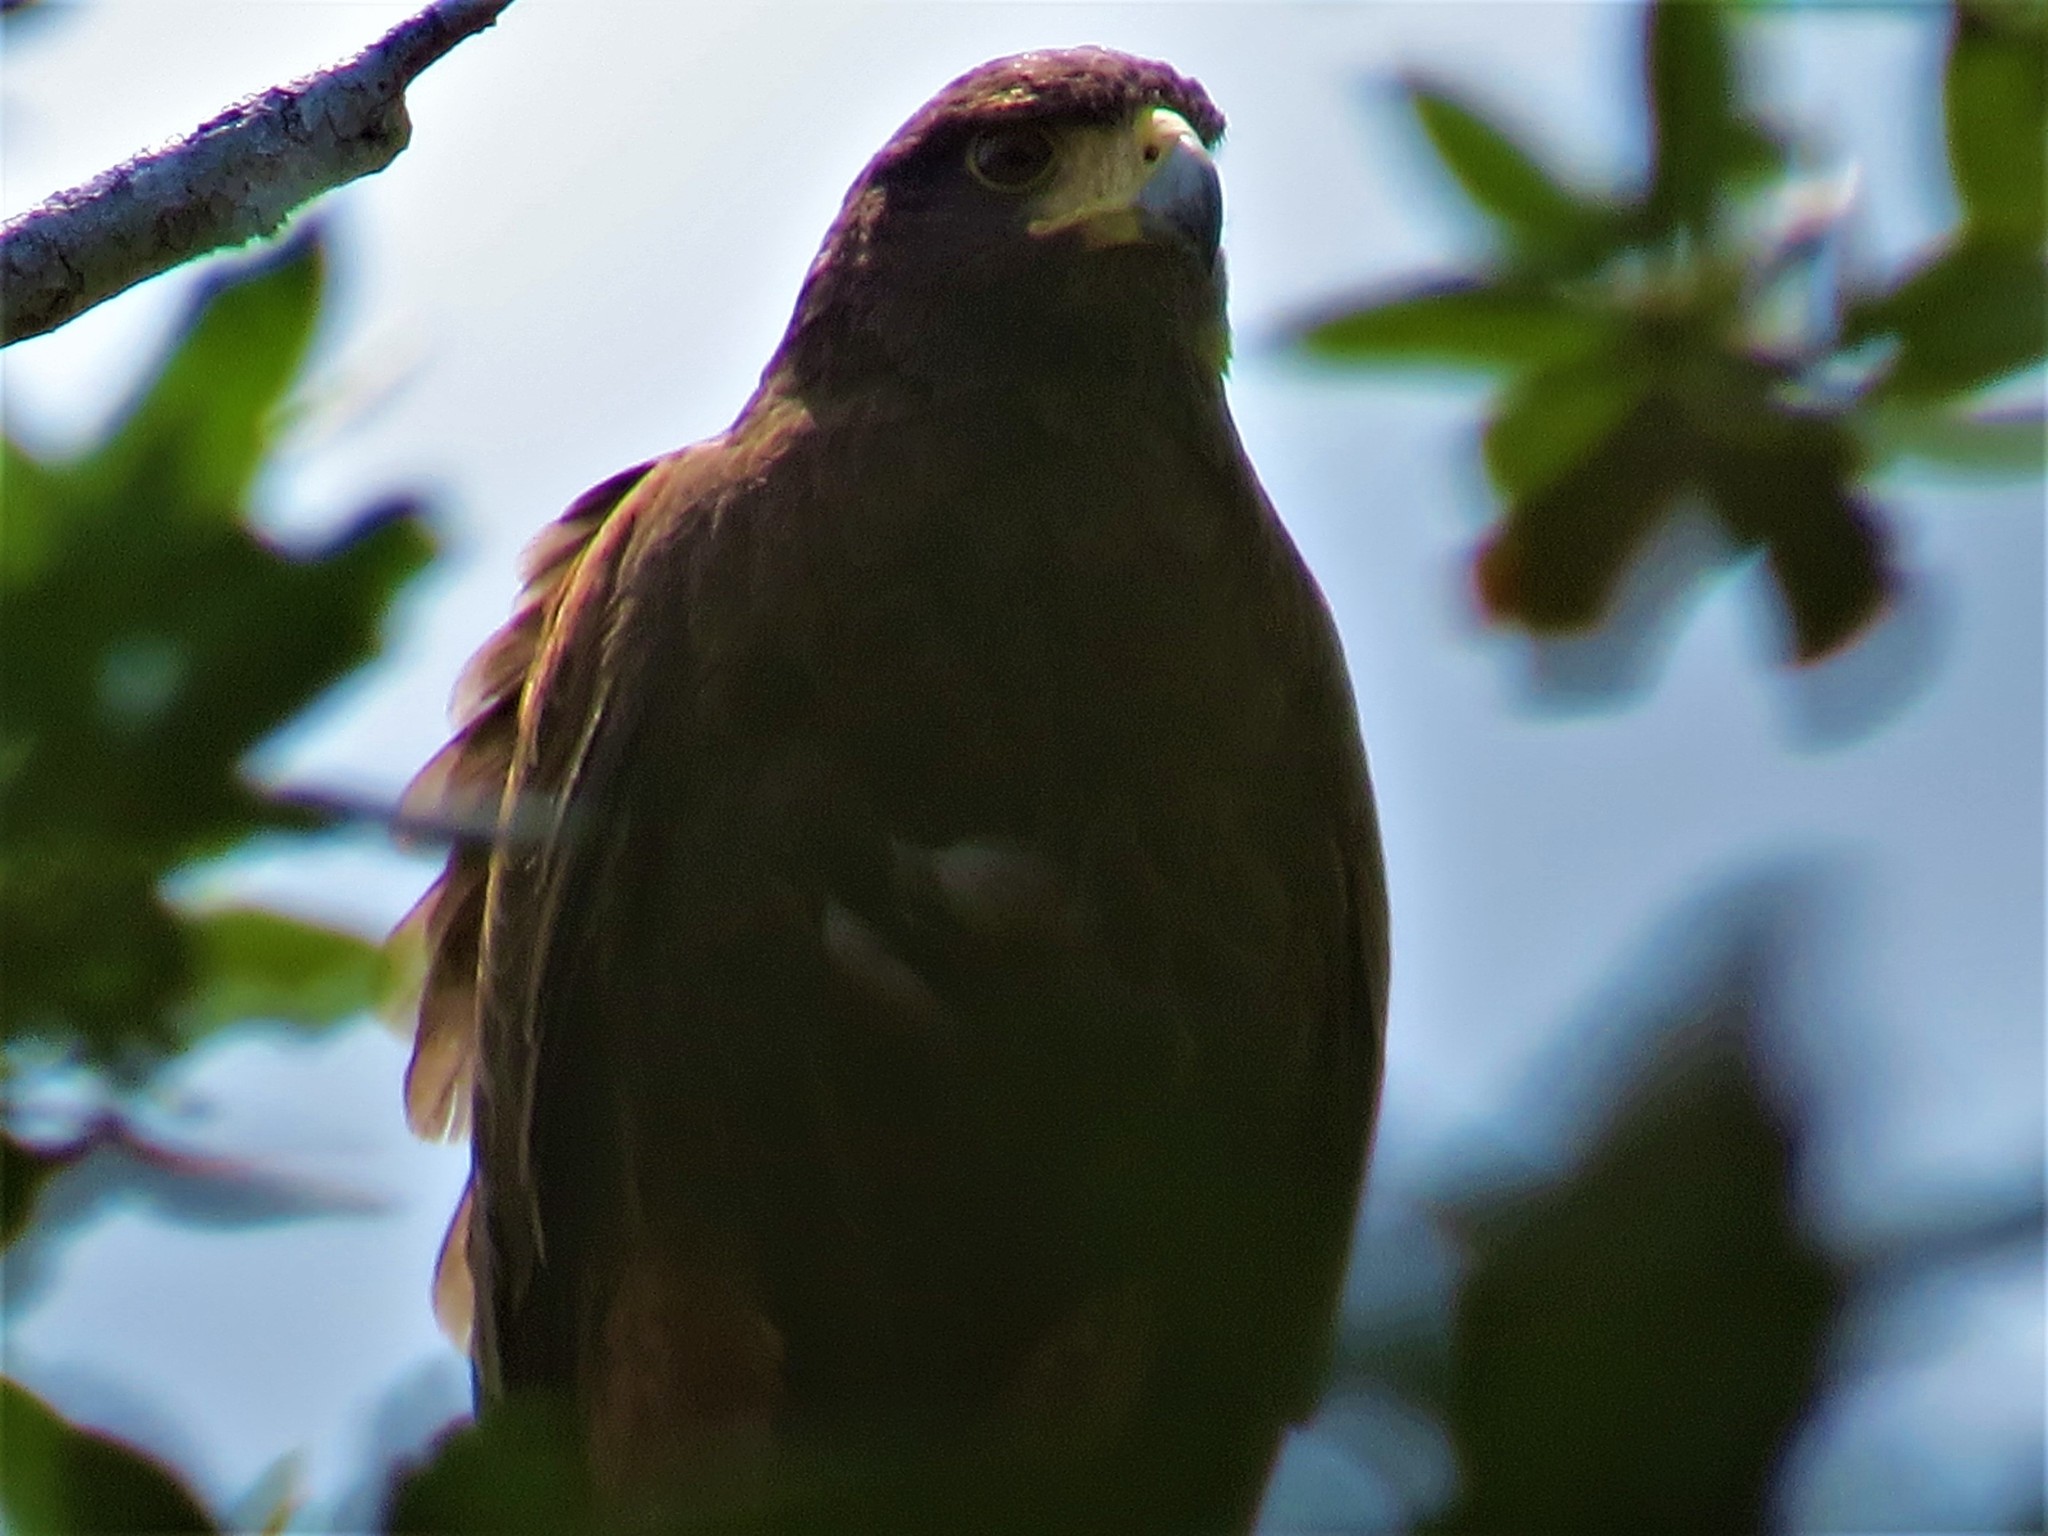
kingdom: Animalia
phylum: Chordata
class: Aves
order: Accipitriformes
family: Accipitridae
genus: Parabuteo
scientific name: Parabuteo unicinctus
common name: Harris's hawk
